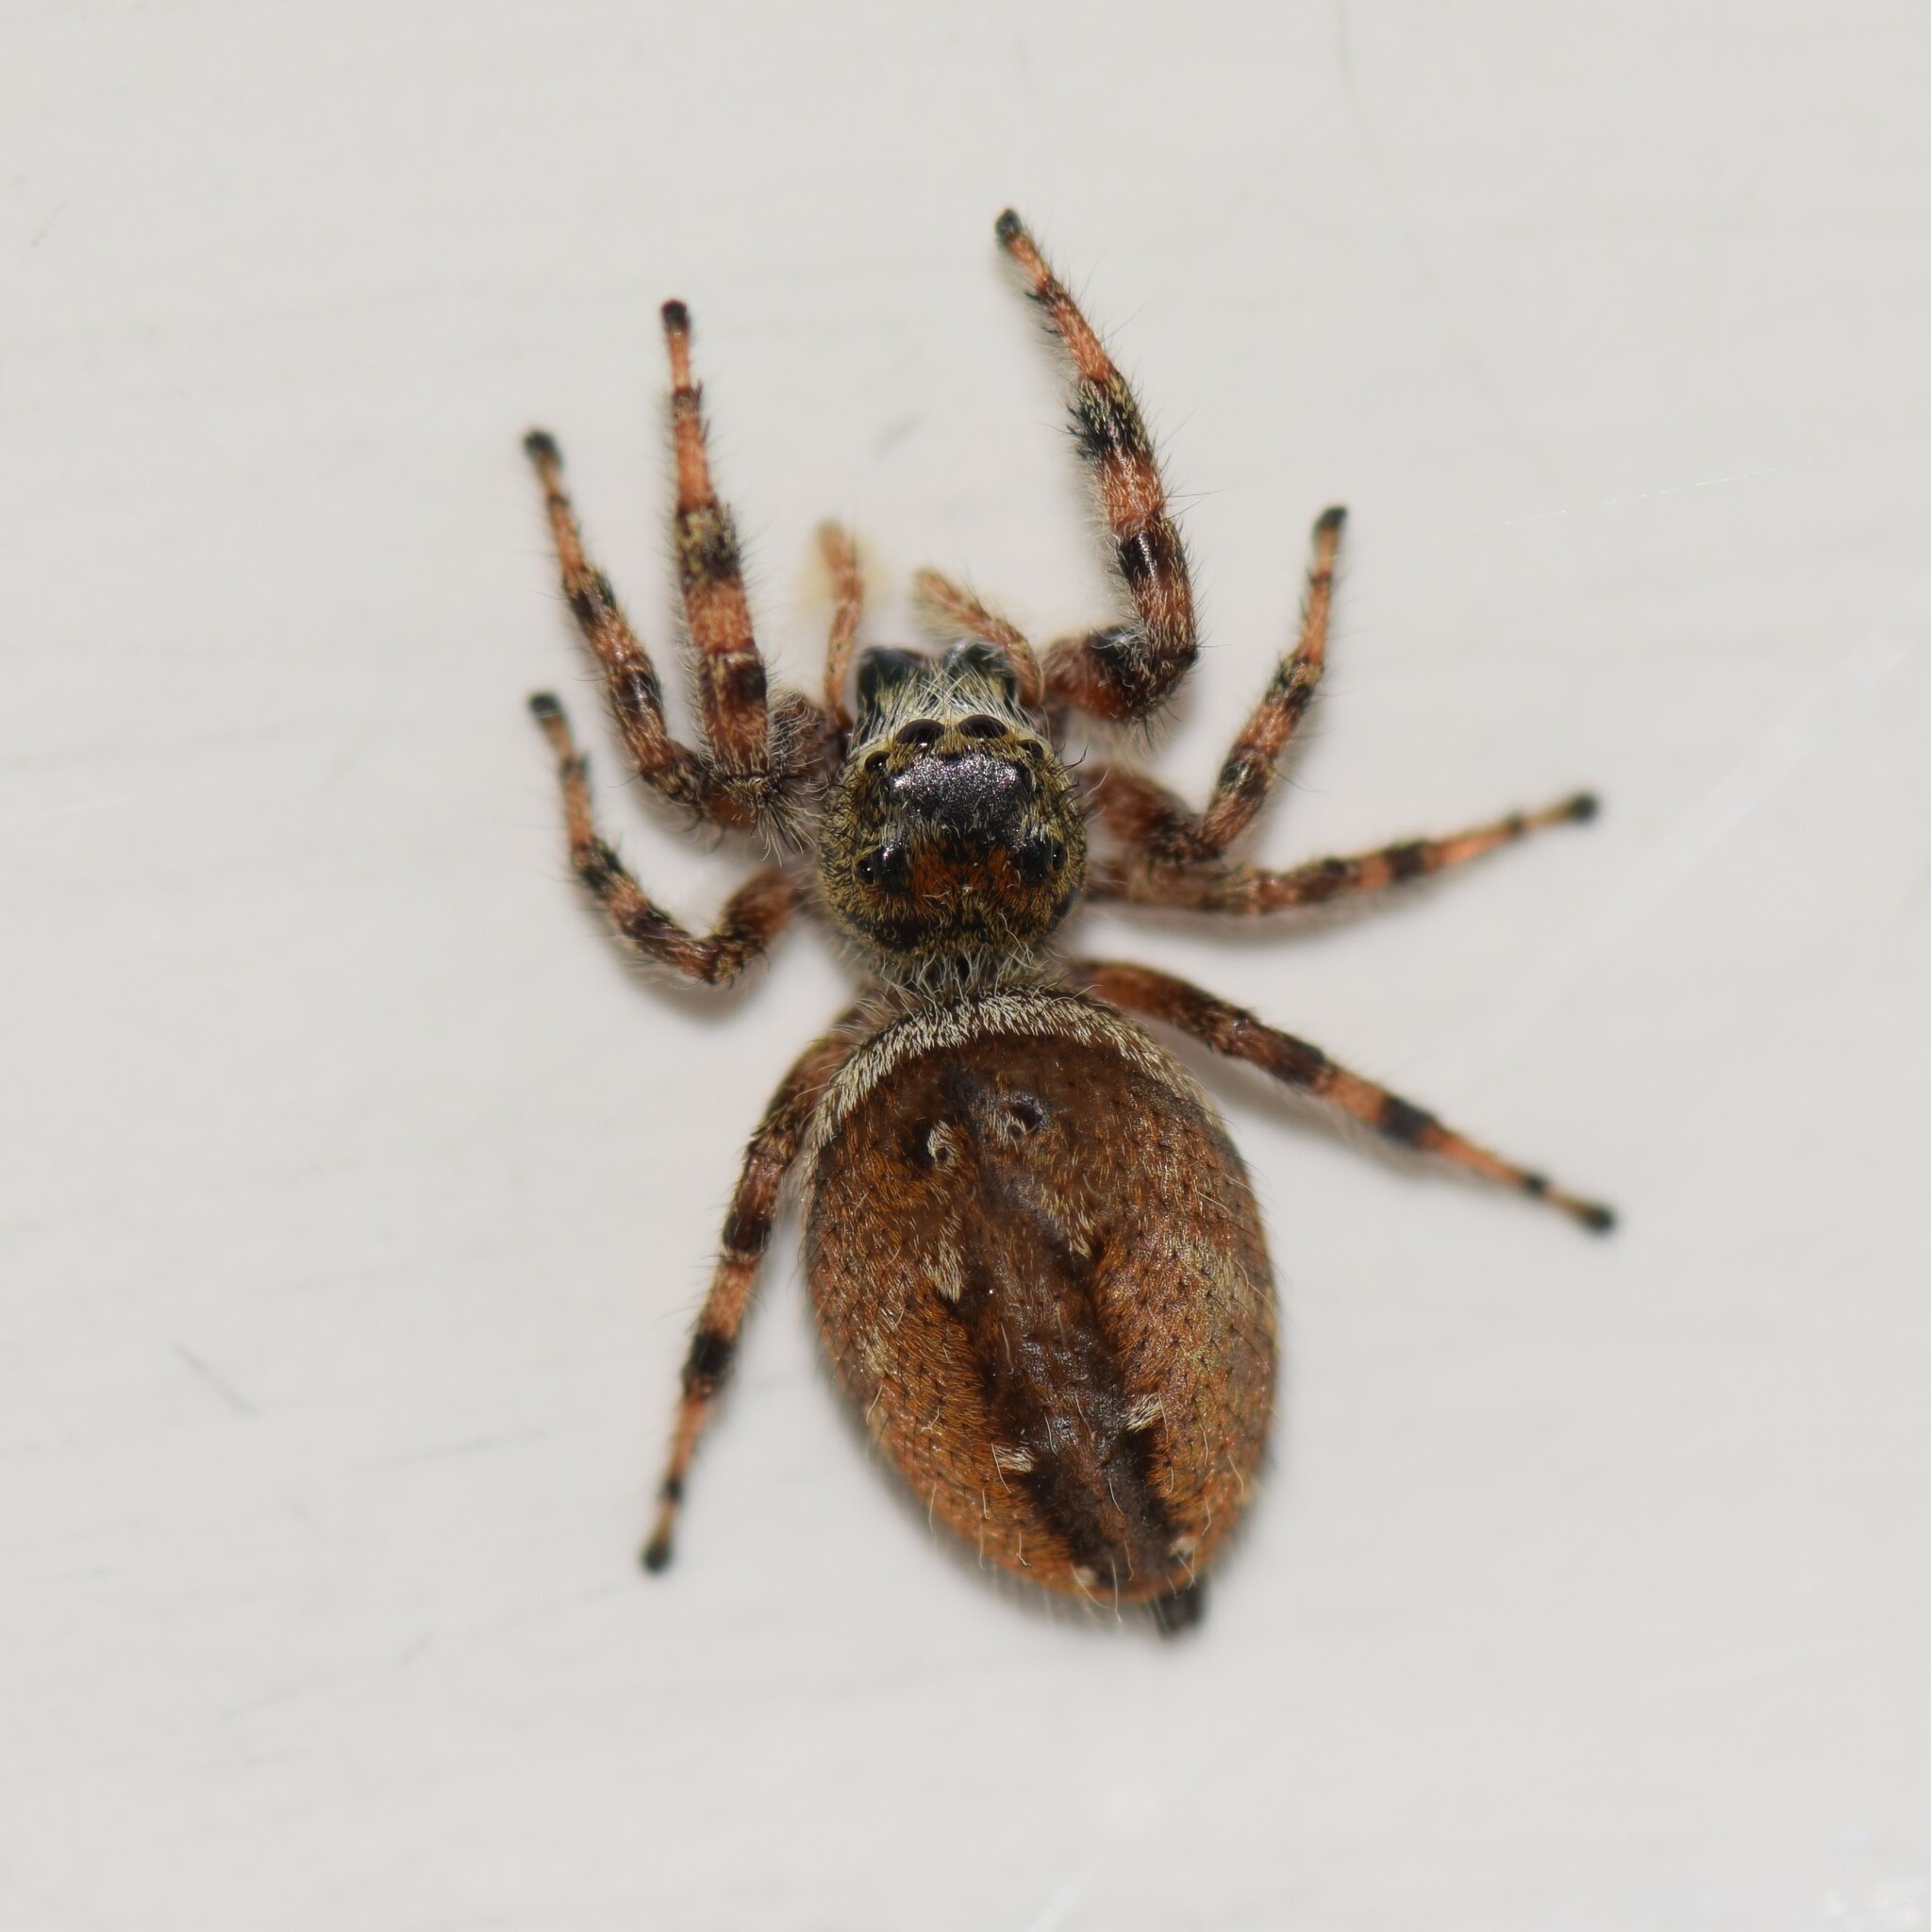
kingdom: Animalia
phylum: Arthropoda
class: Arachnida
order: Araneae
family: Salticidae
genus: Phidippus
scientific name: Phidippus clarus
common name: Brilliant jumping spider
